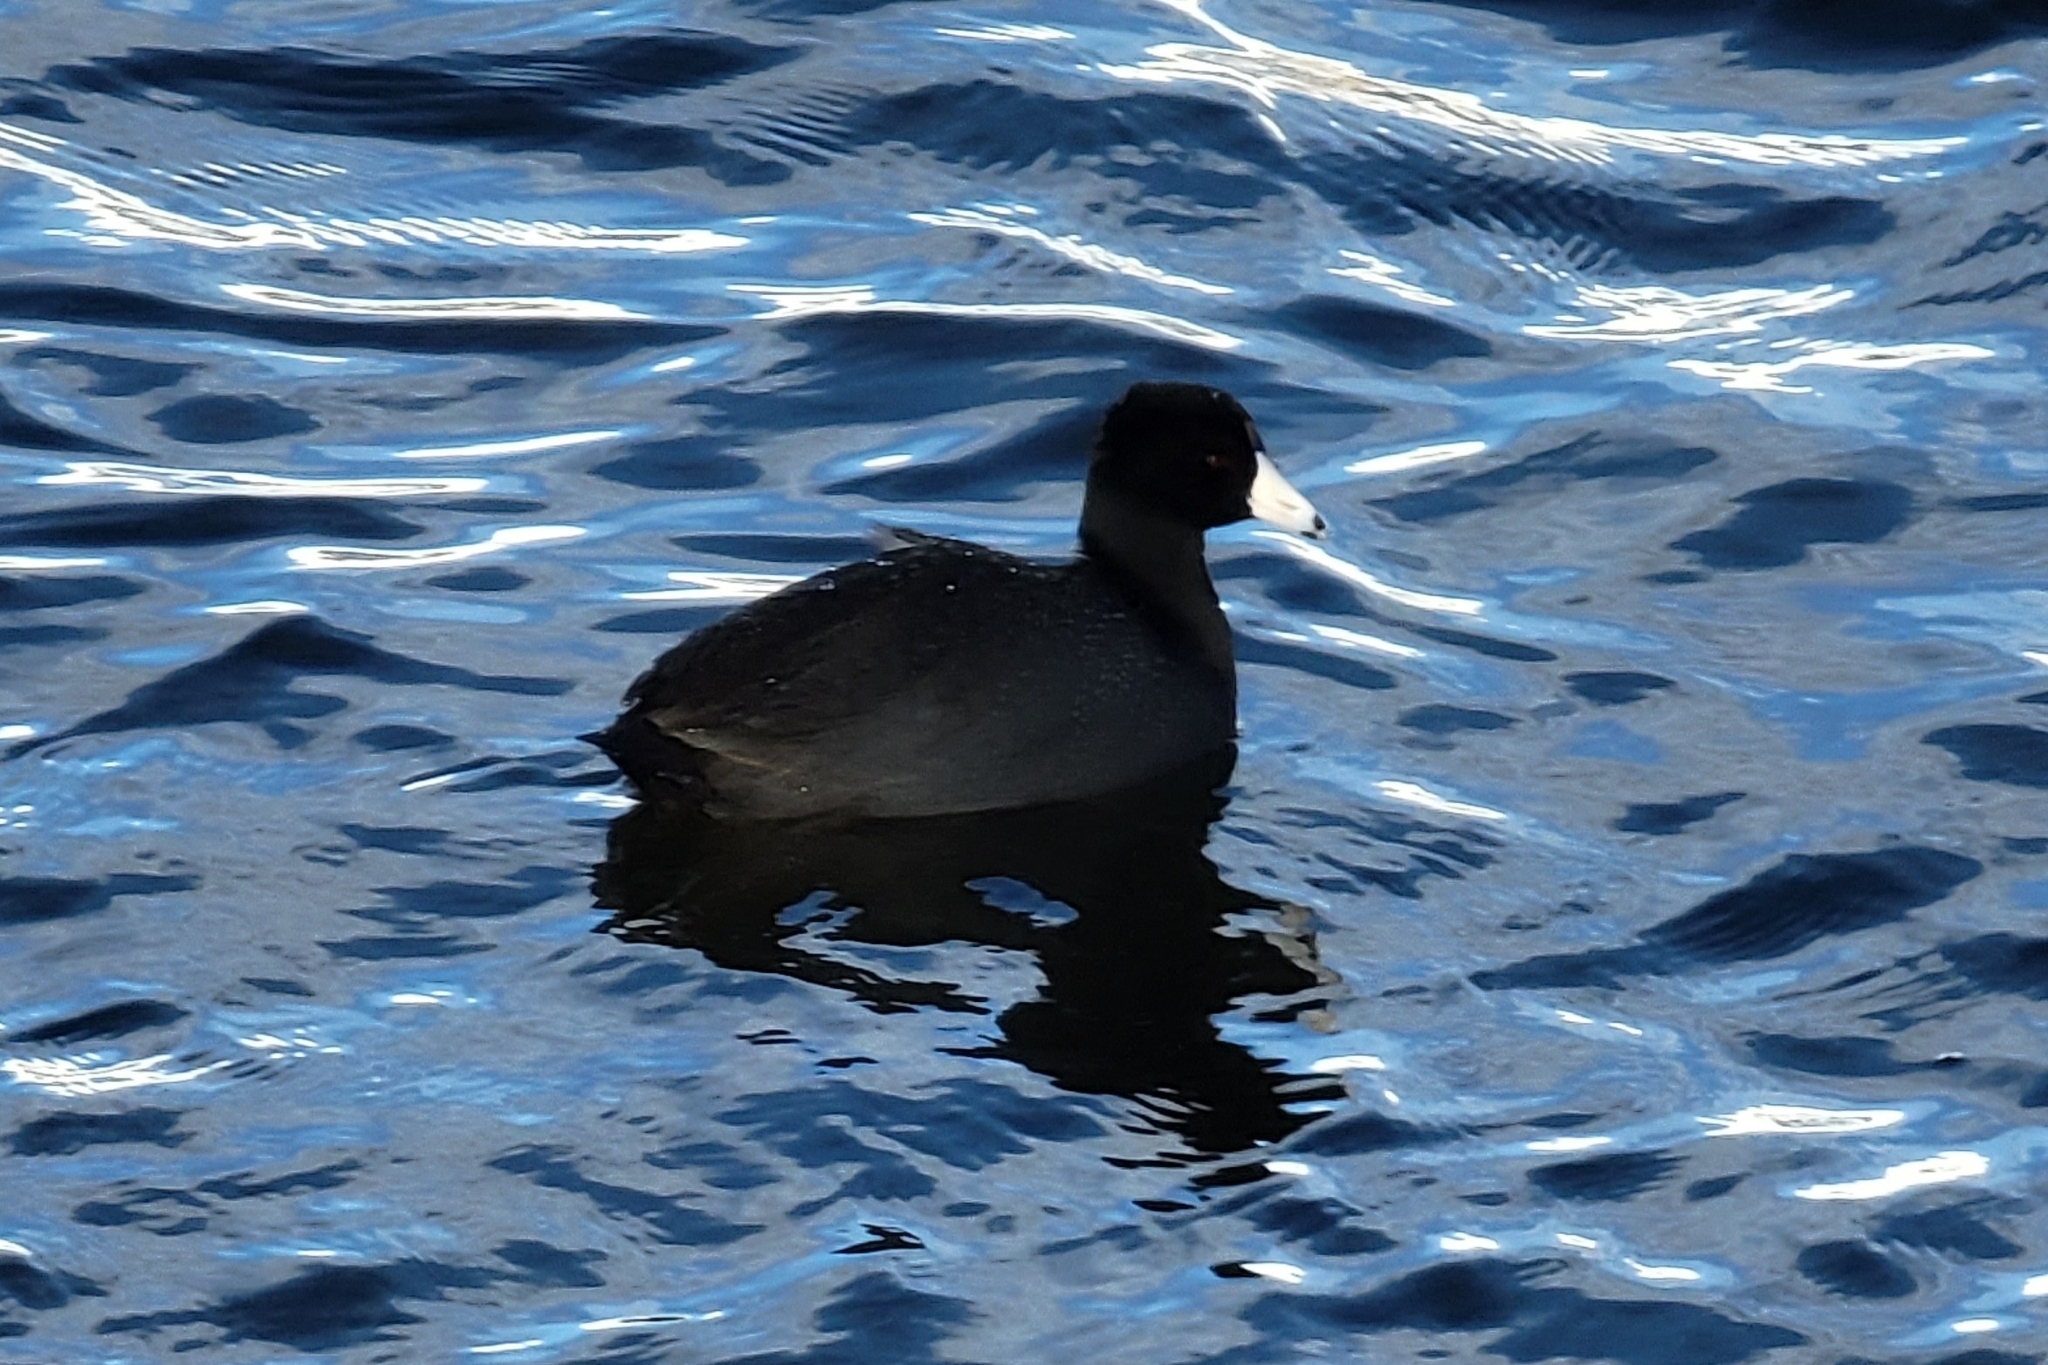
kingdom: Animalia
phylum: Chordata
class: Aves
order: Gruiformes
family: Rallidae
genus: Fulica
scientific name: Fulica americana
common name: American coot
